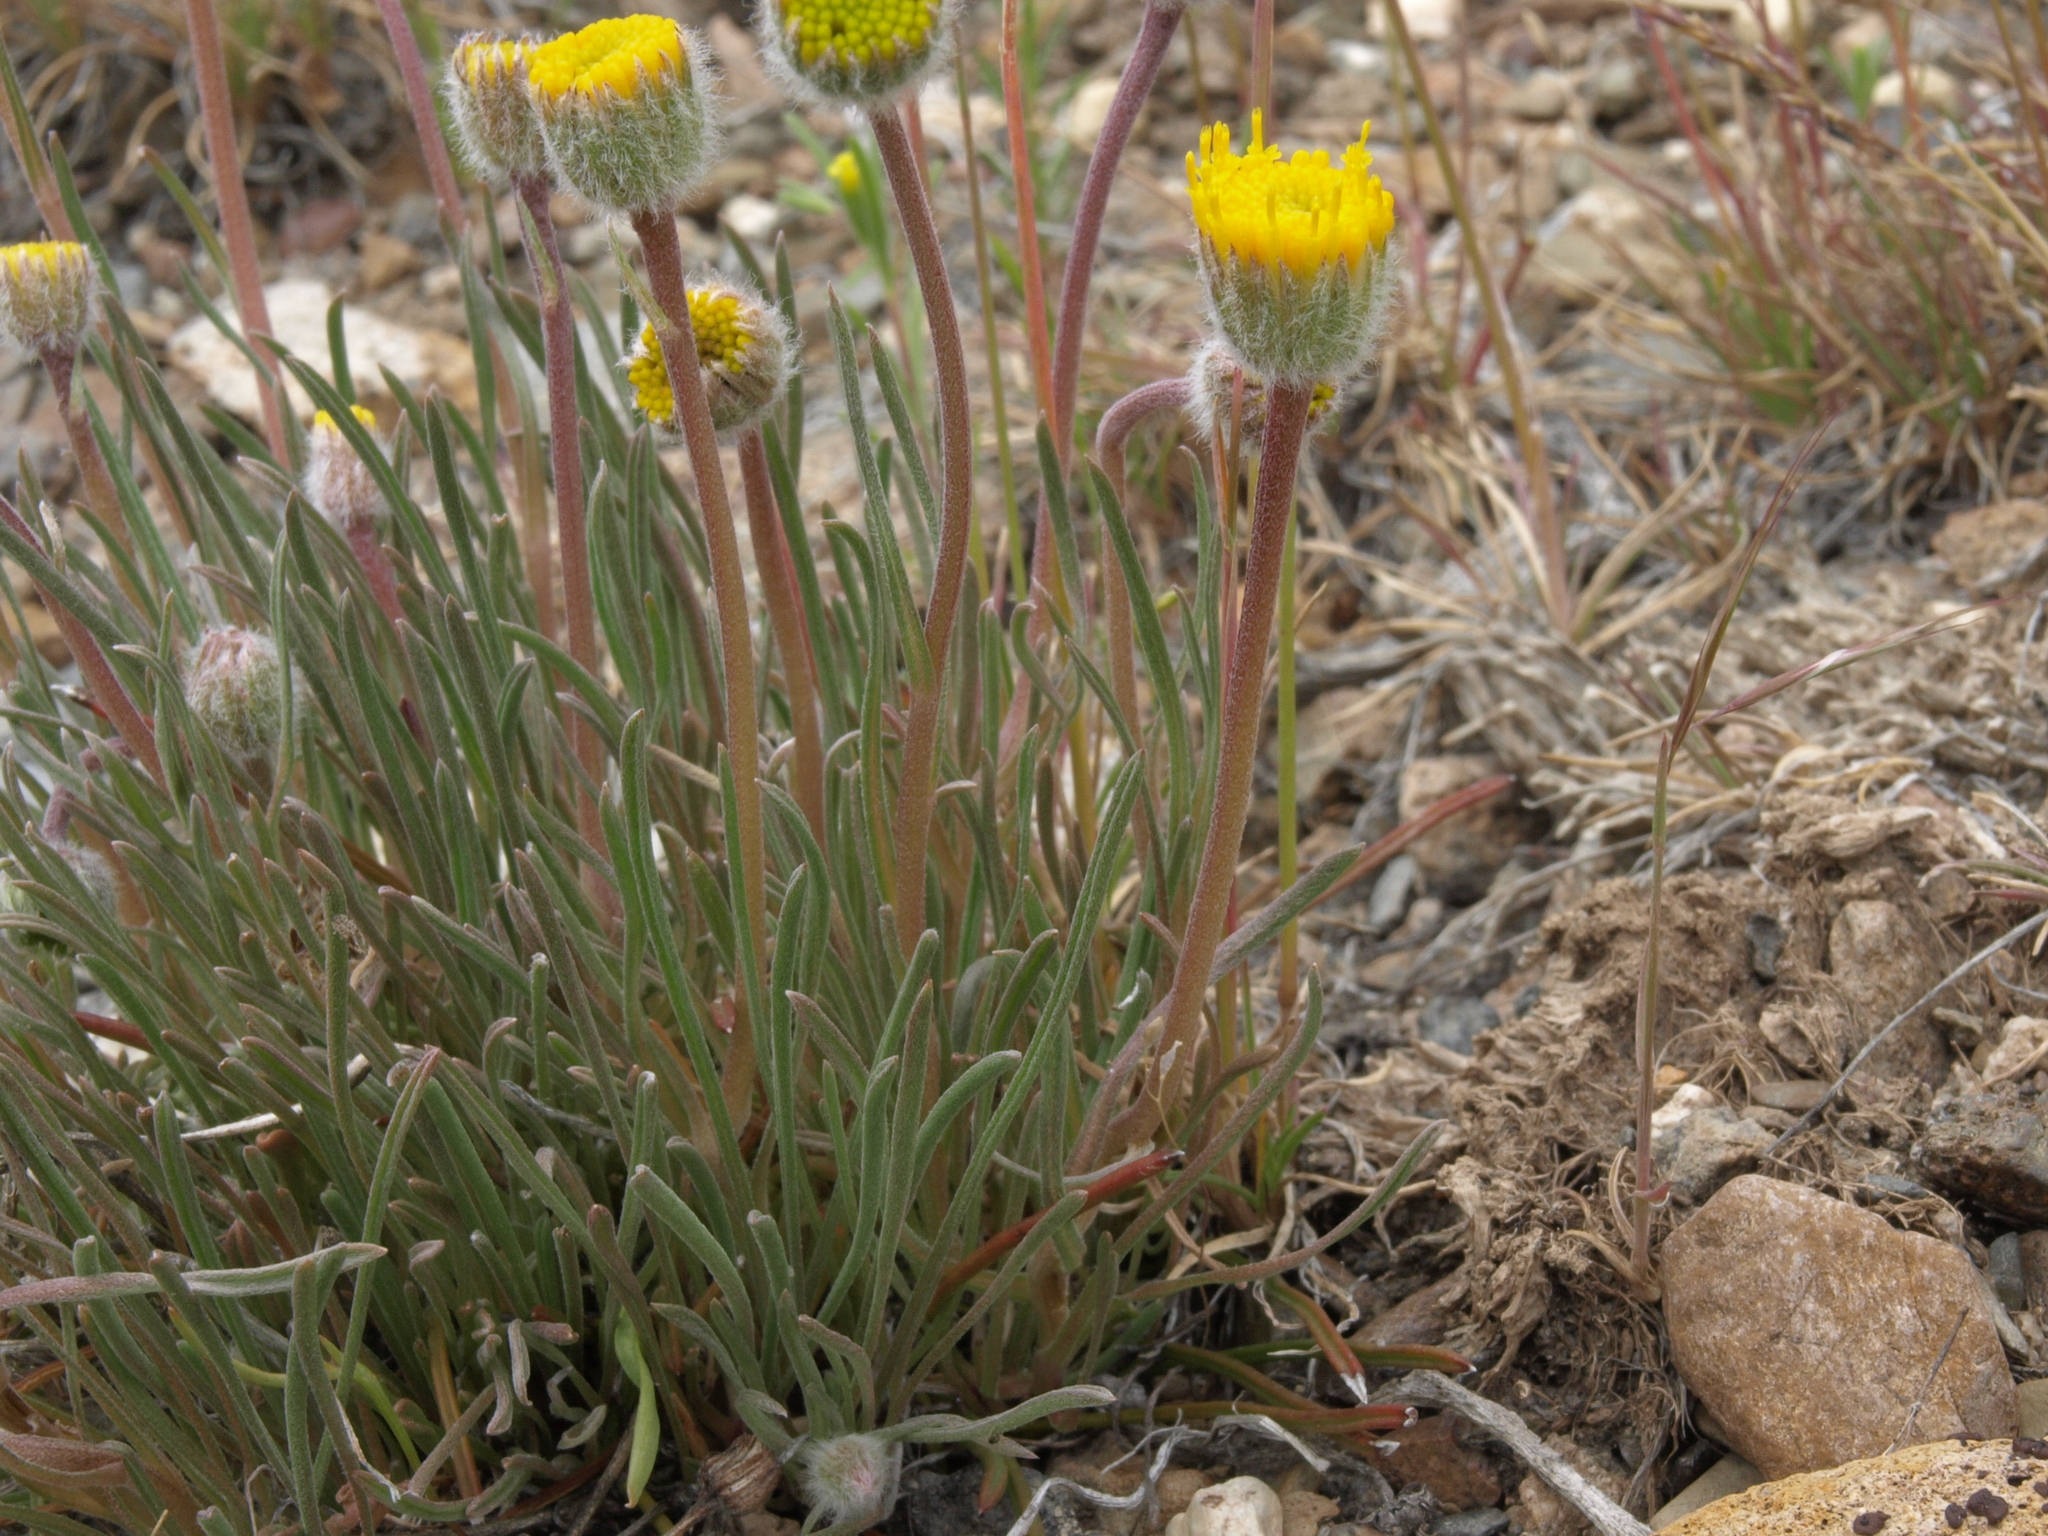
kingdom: Plantae
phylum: Tracheophyta
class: Magnoliopsida
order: Asterales
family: Asteraceae
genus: Erigeron
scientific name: Erigeron bloomeri
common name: Bloomer's fleabane
